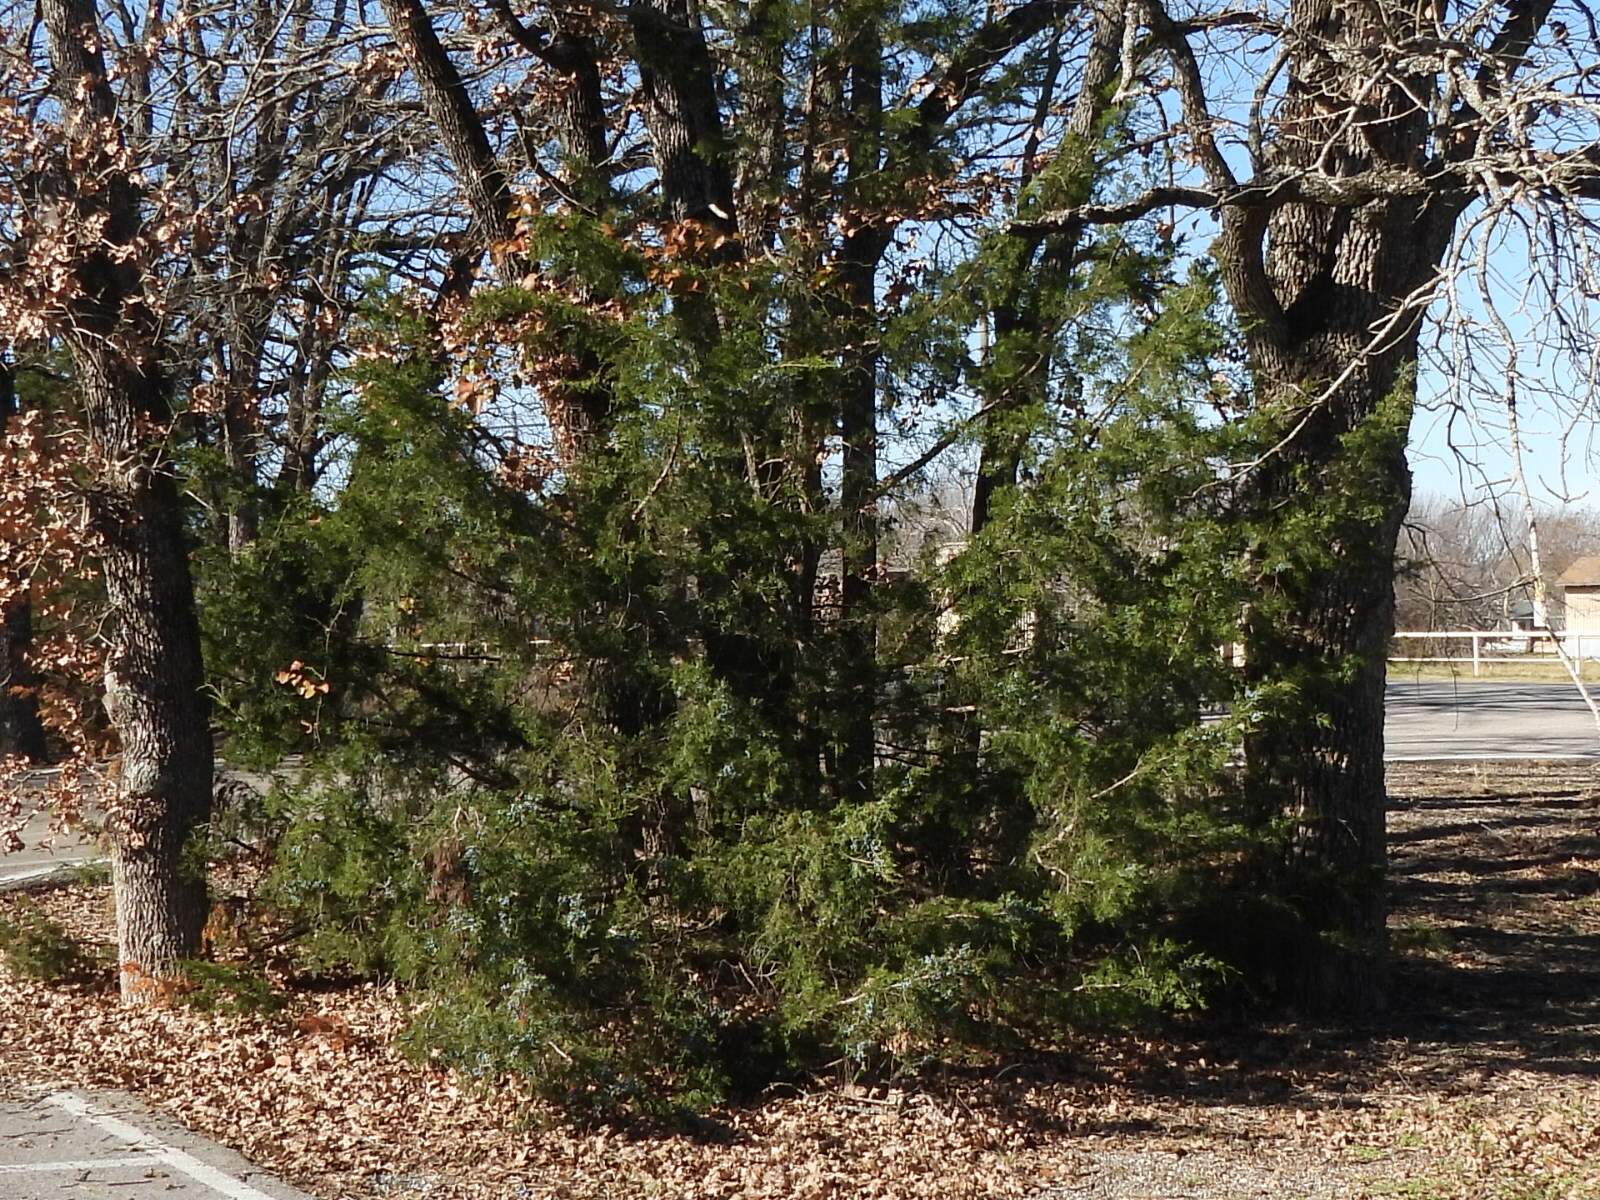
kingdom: Plantae
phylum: Tracheophyta
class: Pinopsida
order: Pinales
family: Cupressaceae
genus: Juniperus
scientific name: Juniperus virginiana
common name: Red juniper
